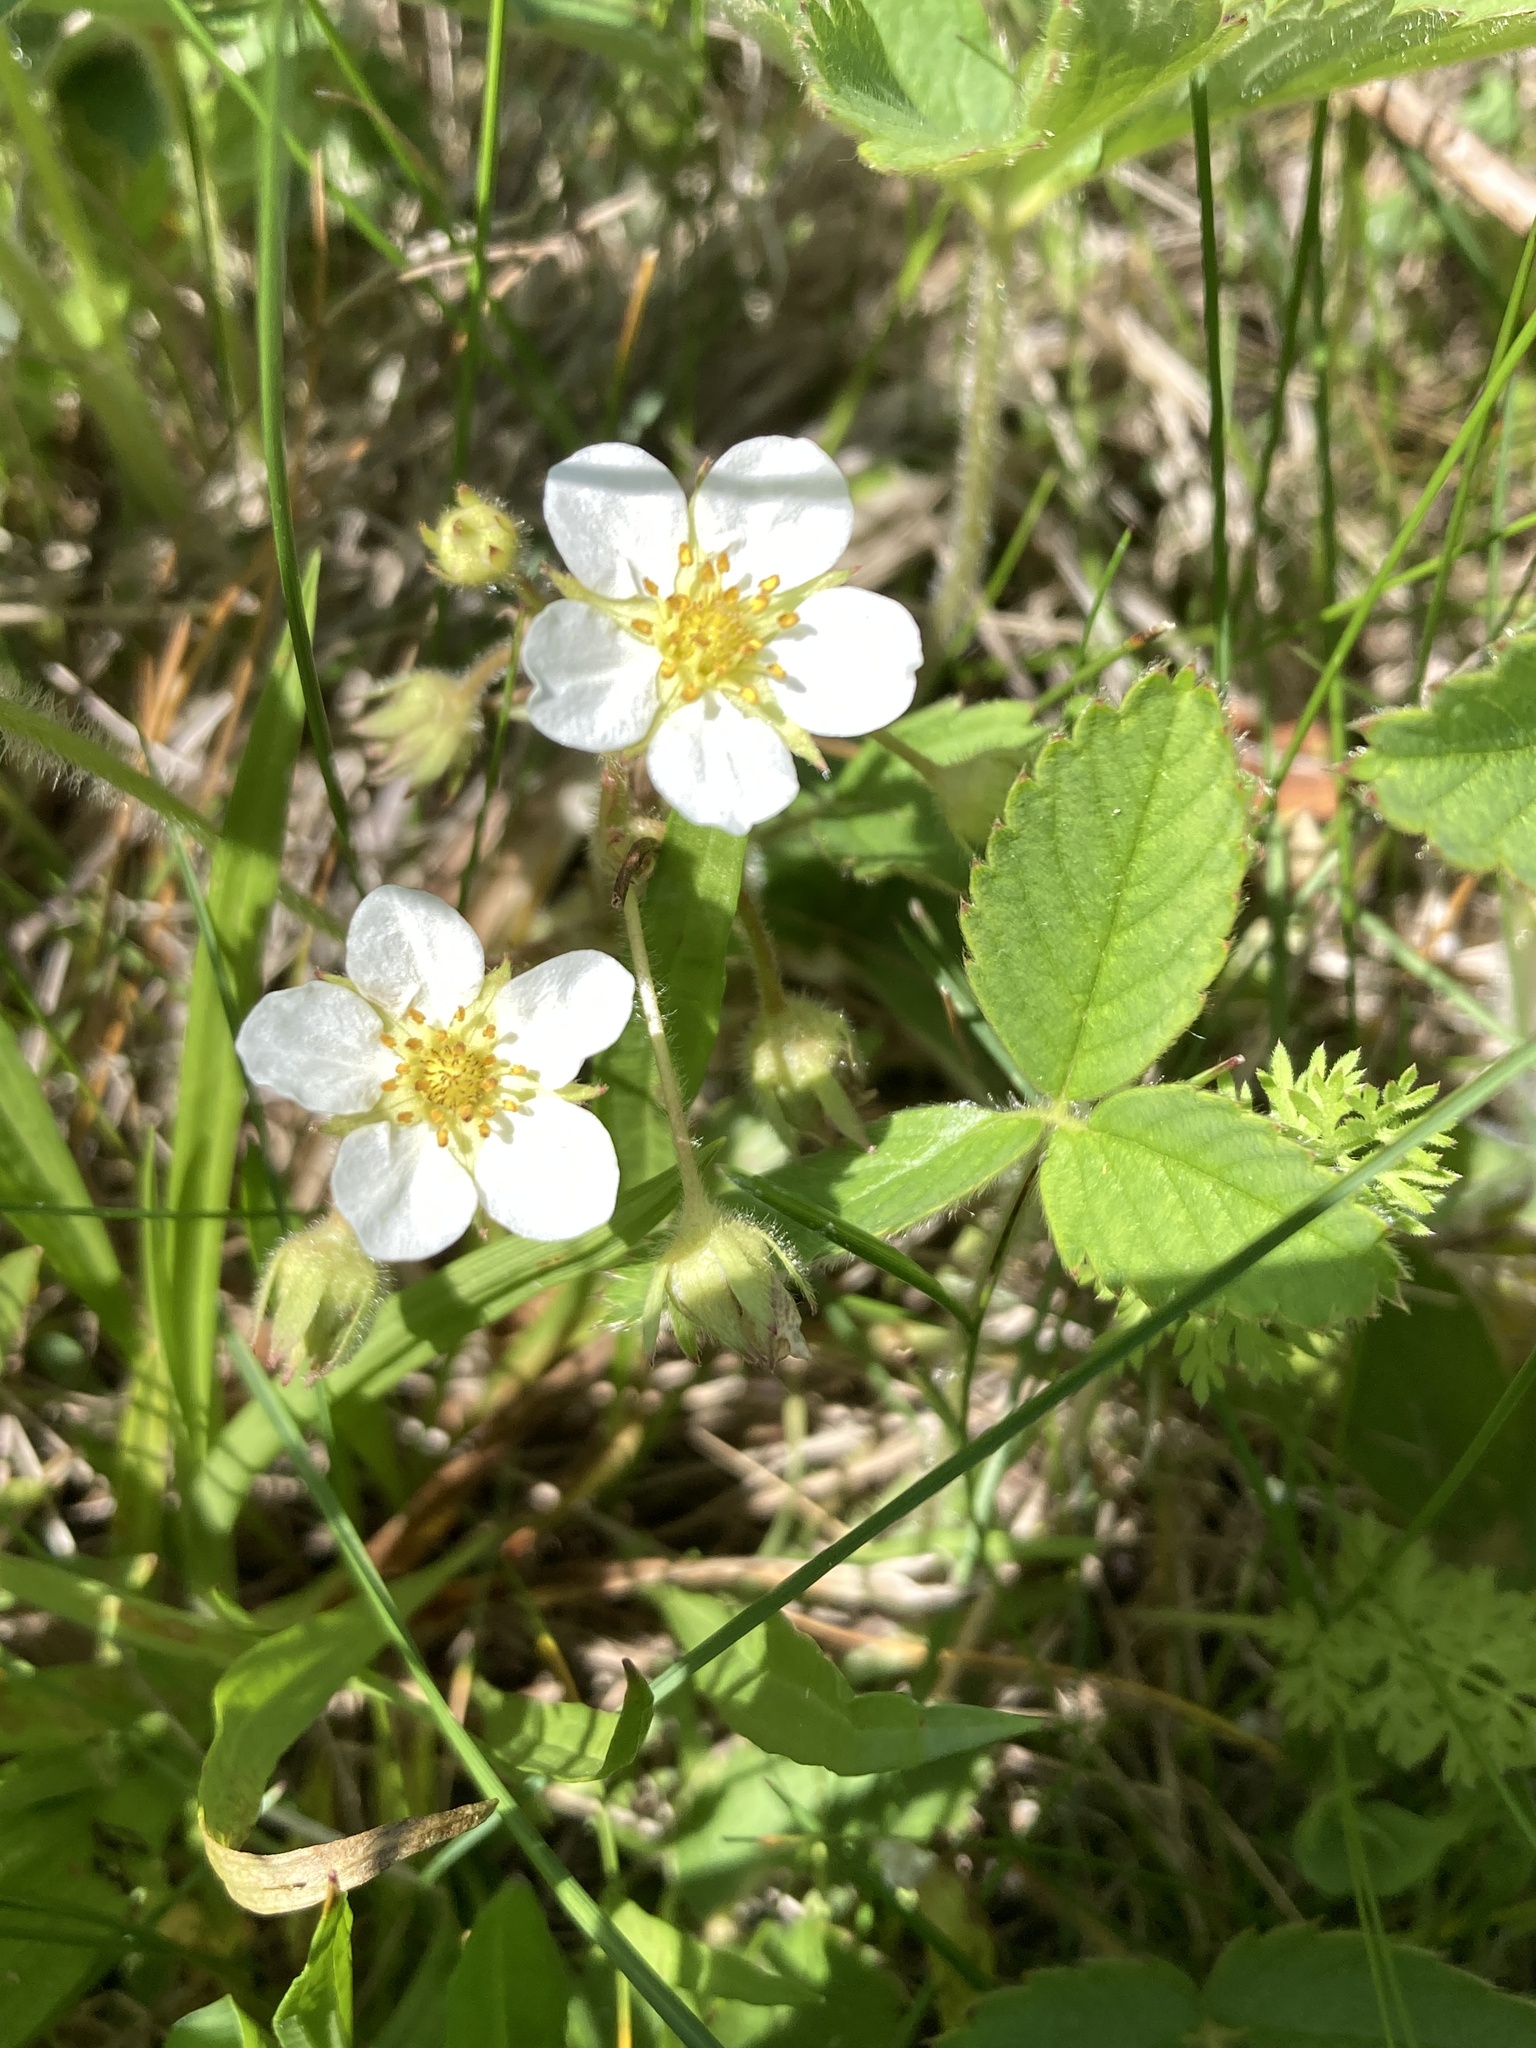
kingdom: Plantae
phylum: Tracheophyta
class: Magnoliopsida
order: Rosales
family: Rosaceae
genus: Fragaria
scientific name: Fragaria virginiana
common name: Thickleaved wild strawberry
